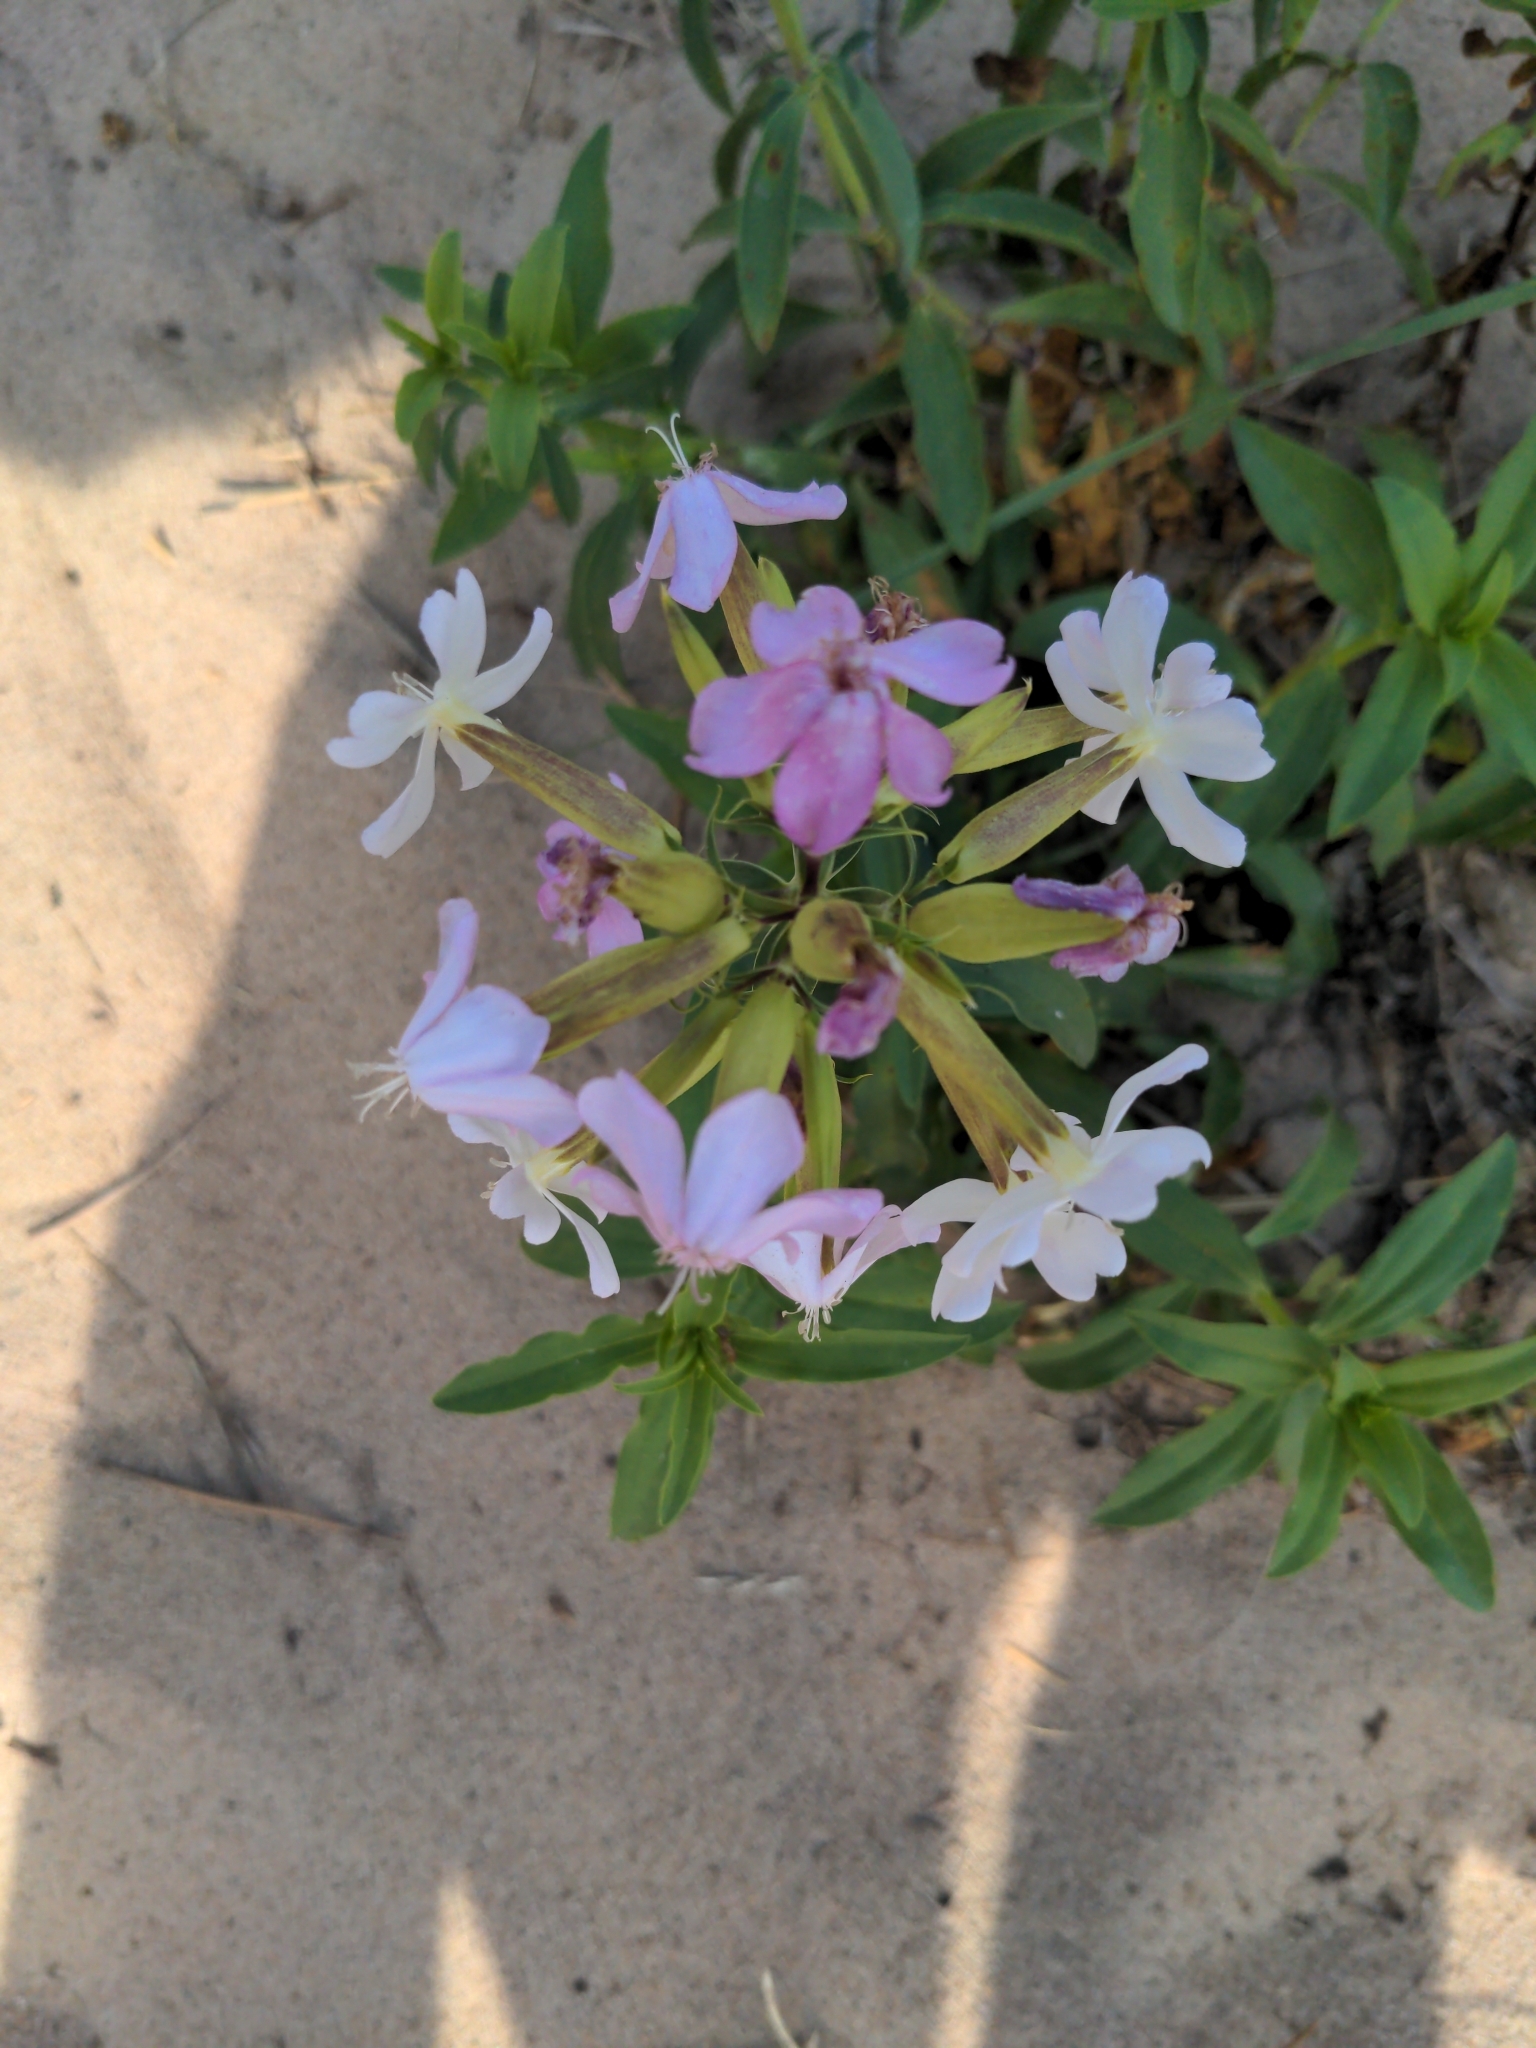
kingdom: Plantae
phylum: Tracheophyta
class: Magnoliopsida
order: Caryophyllales
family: Caryophyllaceae
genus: Saponaria
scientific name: Saponaria officinalis
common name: Soapwort
